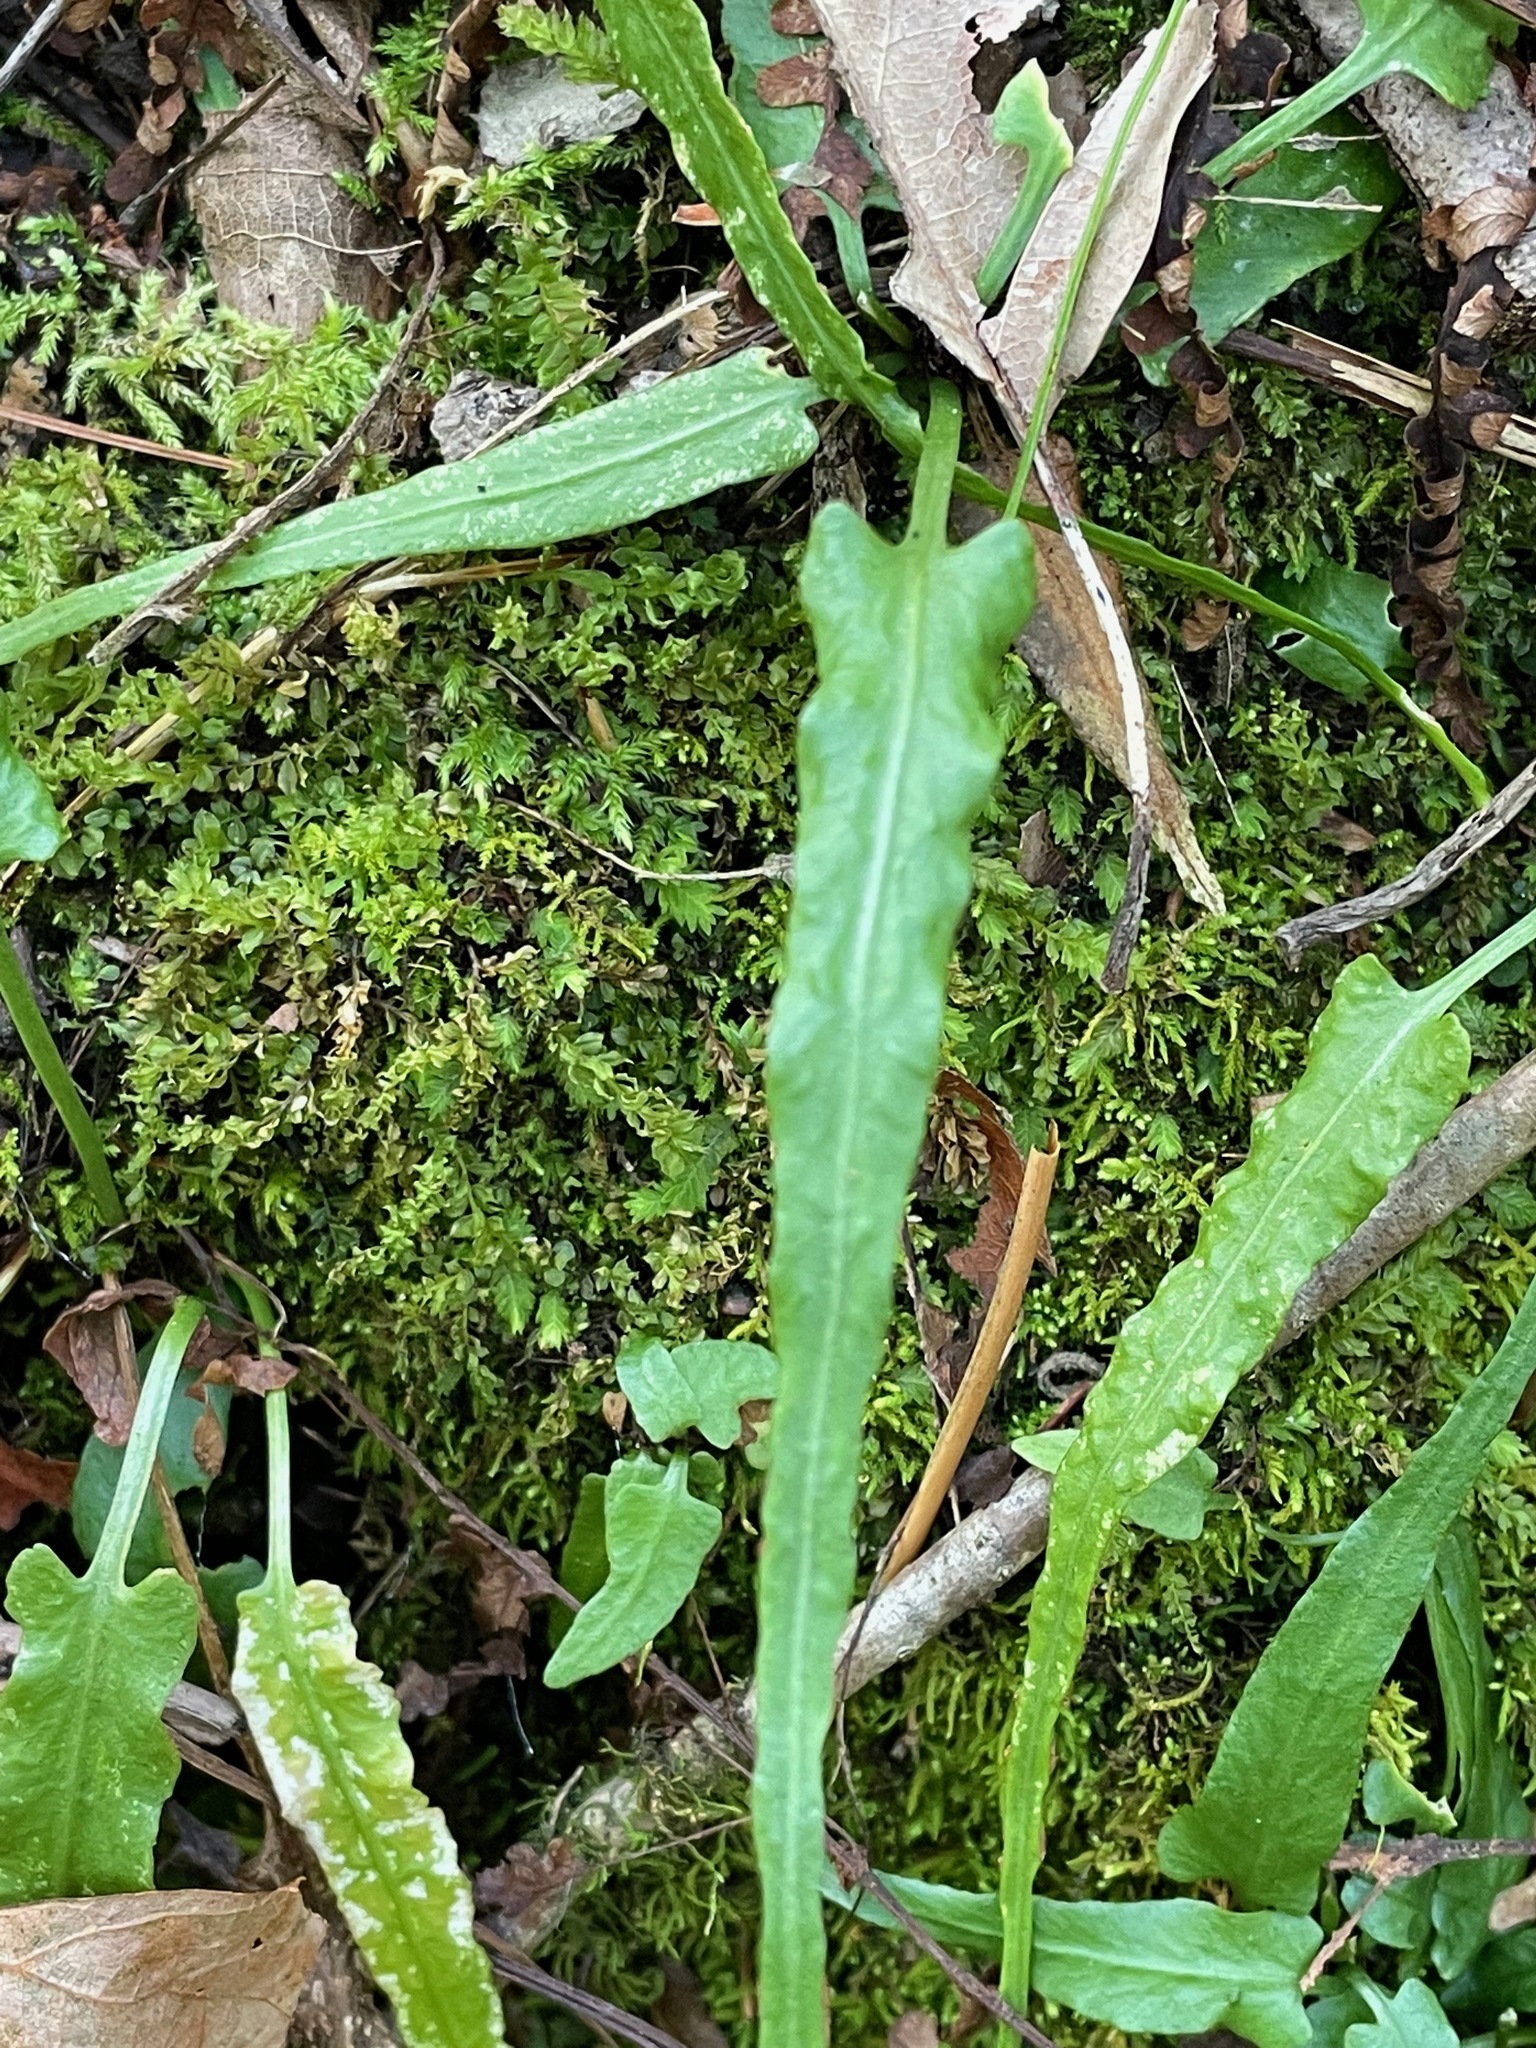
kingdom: Plantae
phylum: Tracheophyta
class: Polypodiopsida
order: Polypodiales
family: Aspleniaceae
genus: Asplenium
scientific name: Asplenium rhizophyllum
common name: Walking fern
